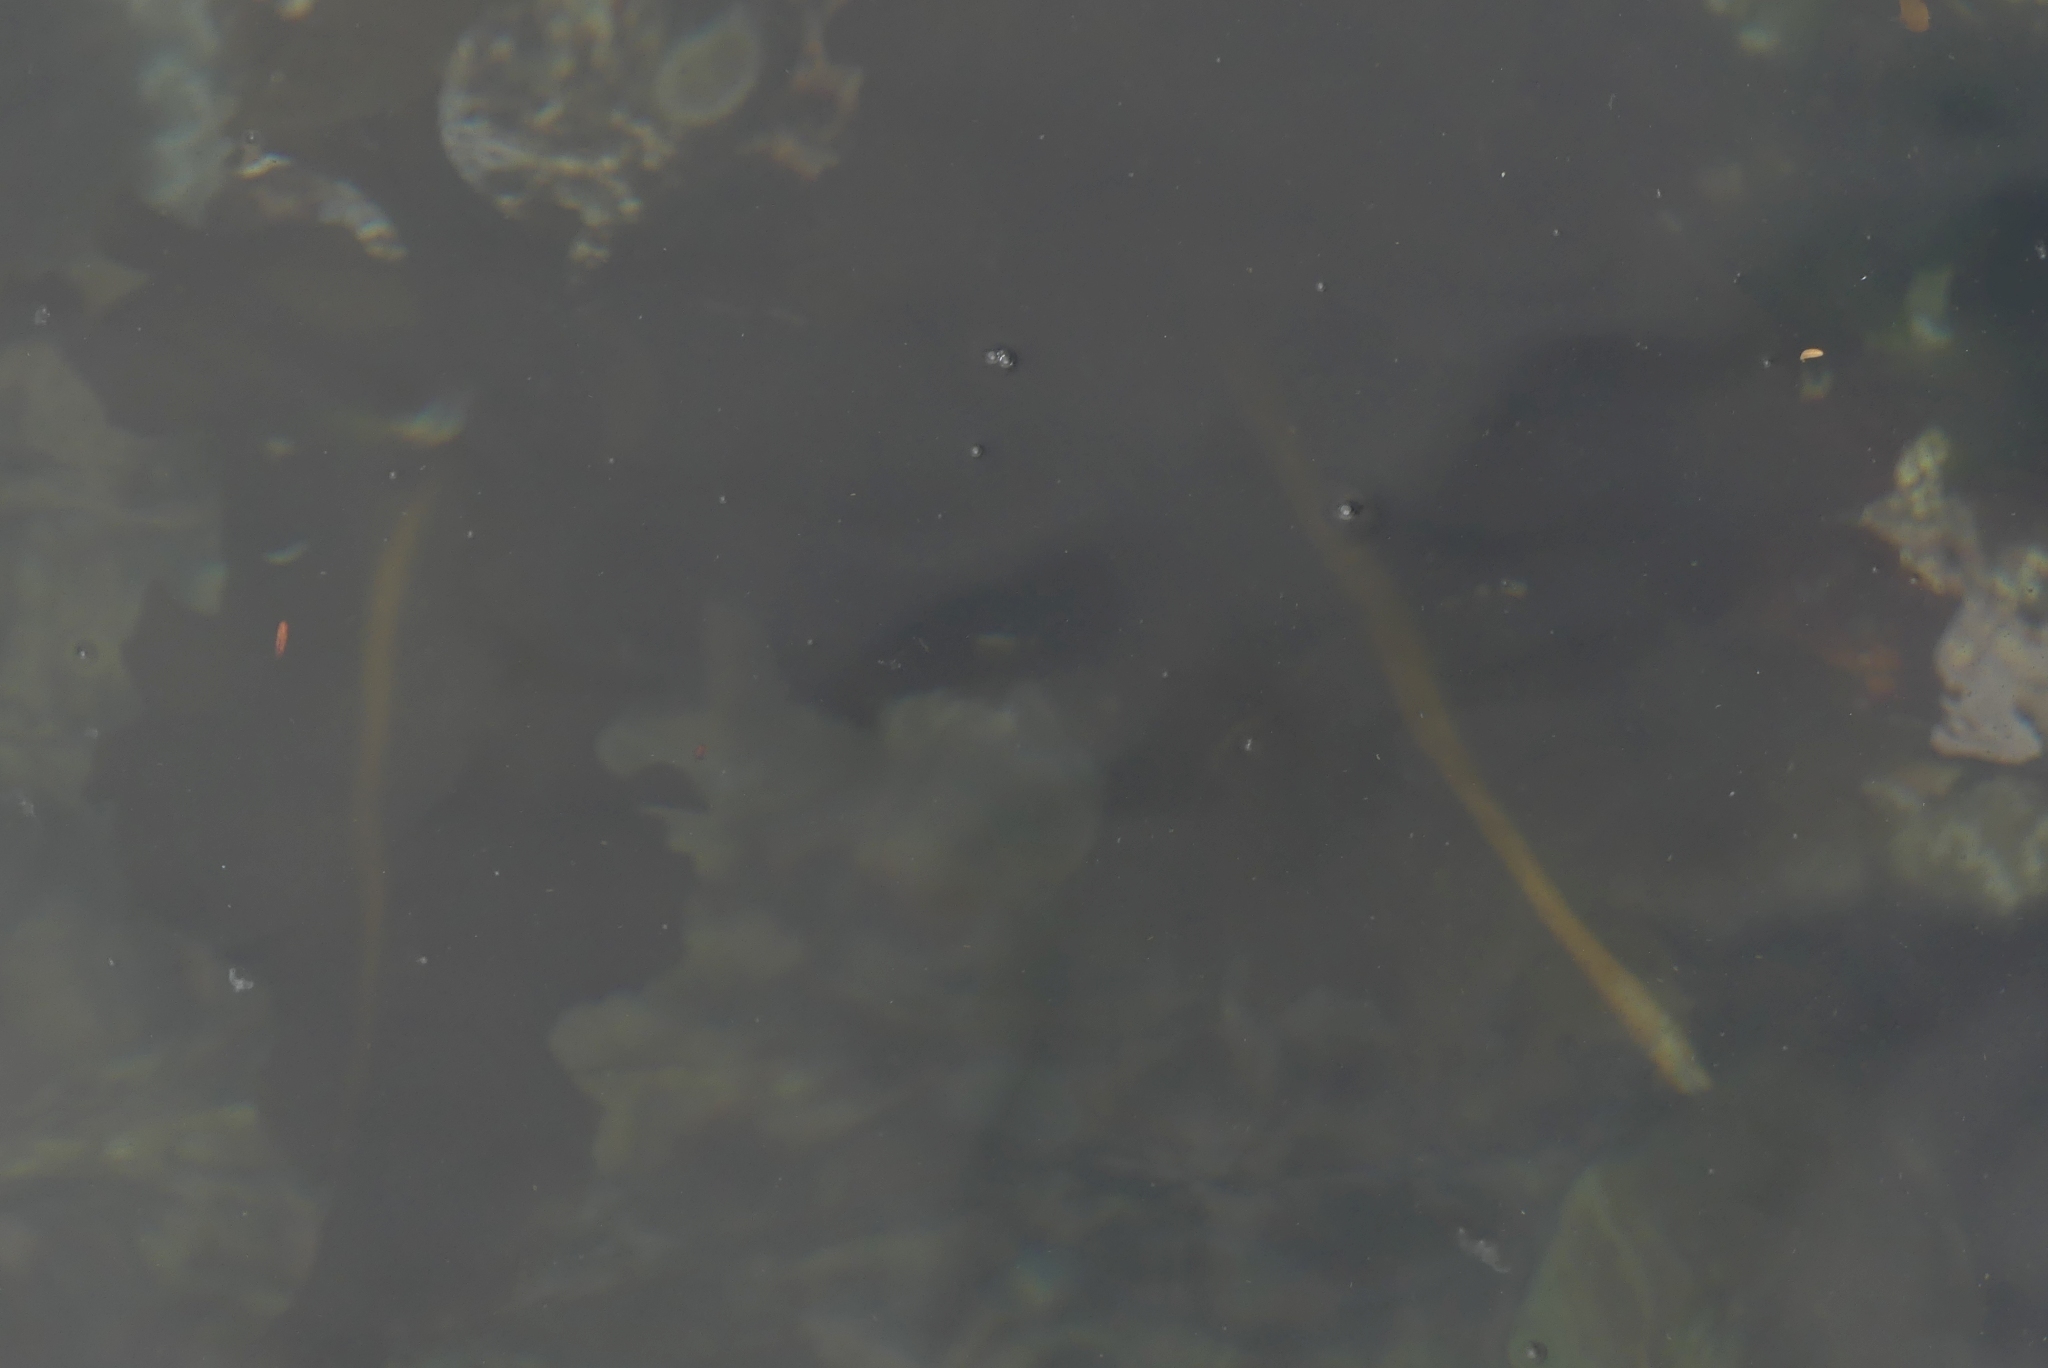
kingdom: Chromista
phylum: Ochrophyta
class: Phaeophyceae
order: Laminariales
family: Alariaceae
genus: Alaria
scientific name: Alaria marginata
